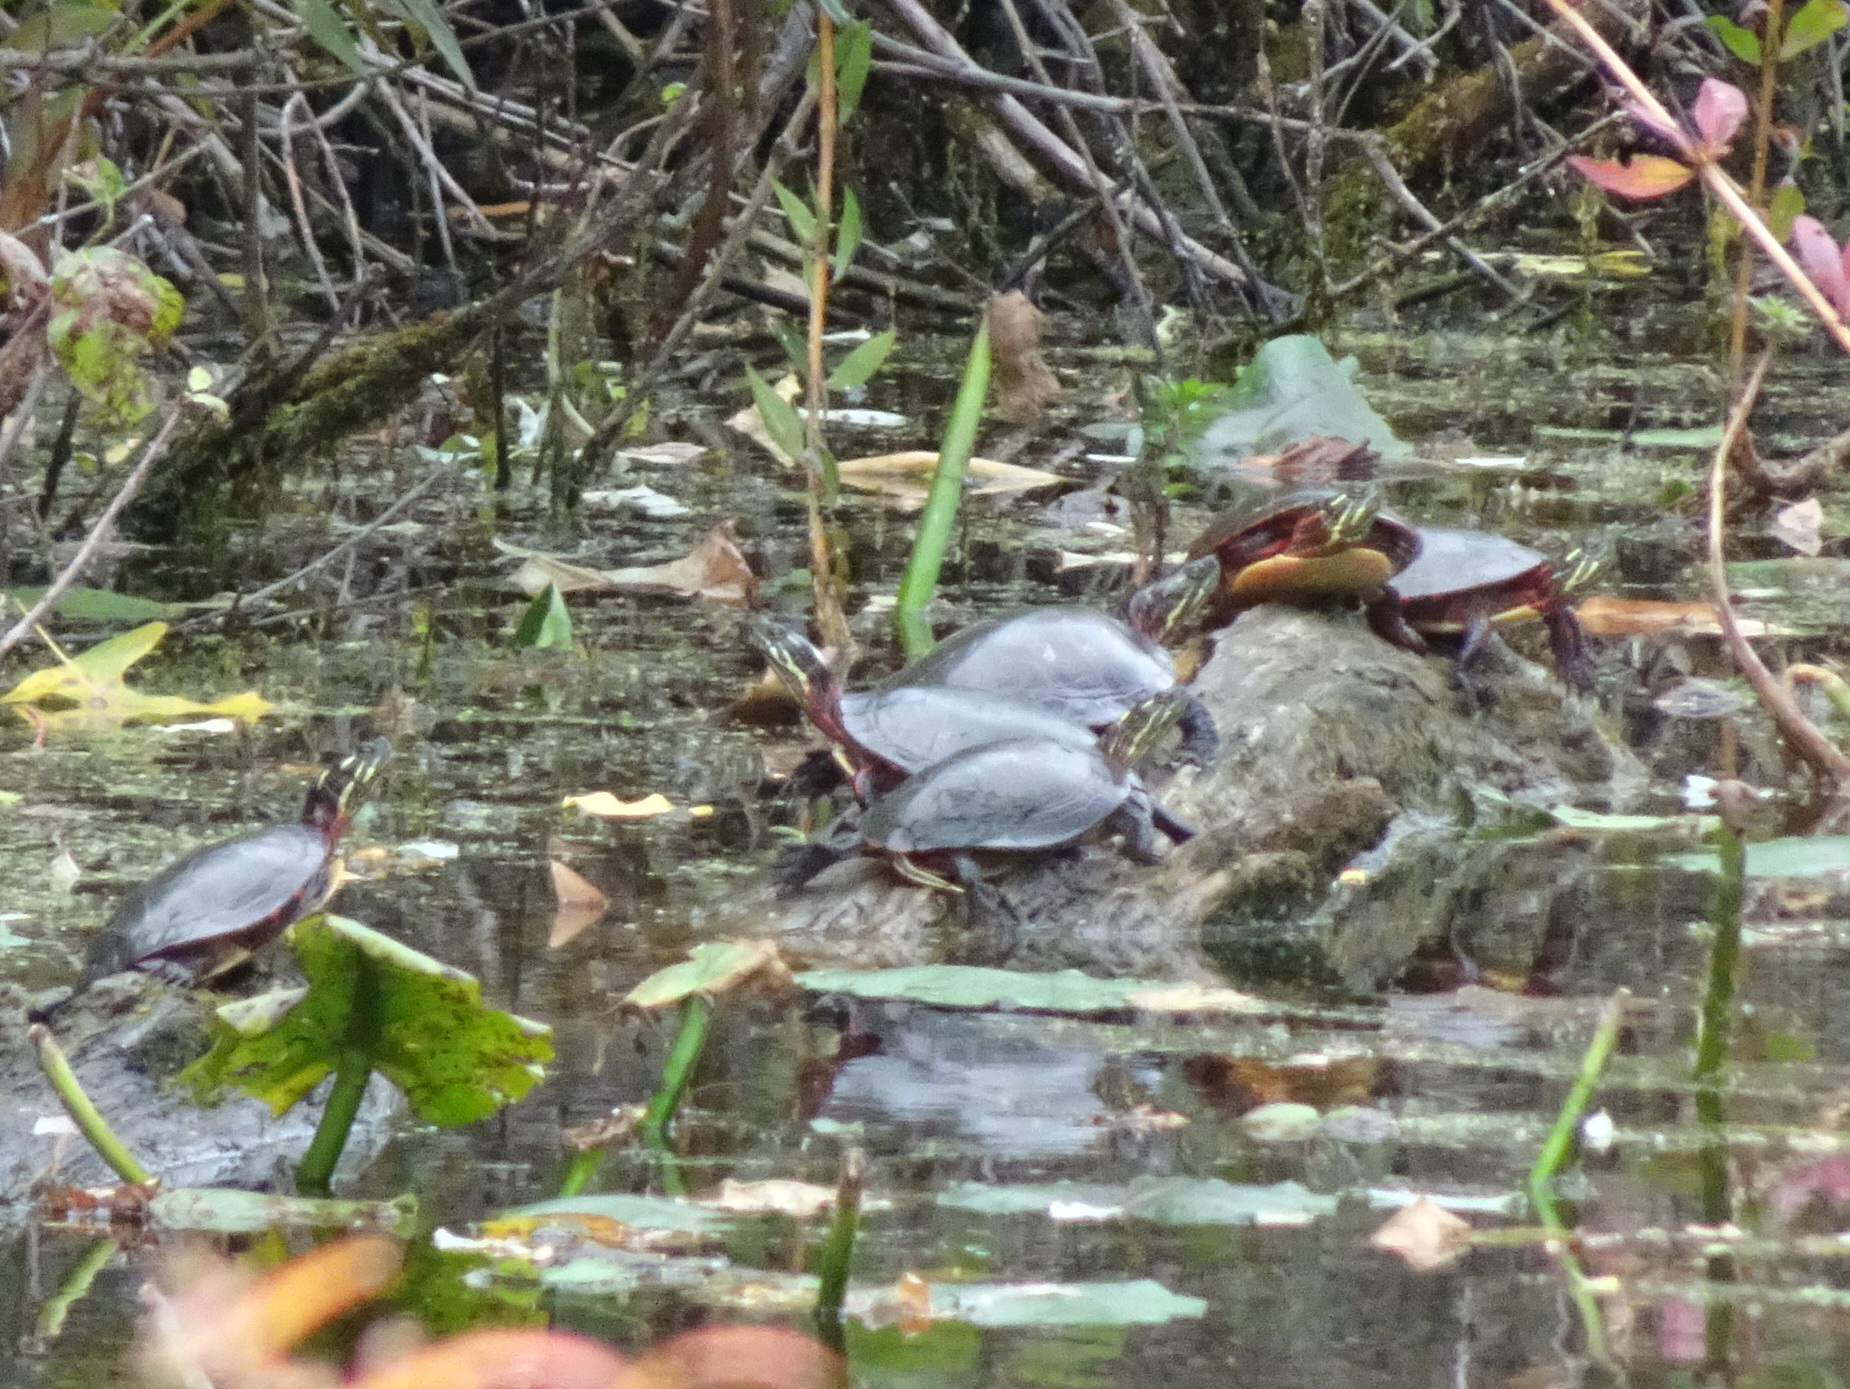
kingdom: Animalia
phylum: Chordata
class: Testudines
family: Emydidae
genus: Chrysemys
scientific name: Chrysemys picta
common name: Painted turtle
